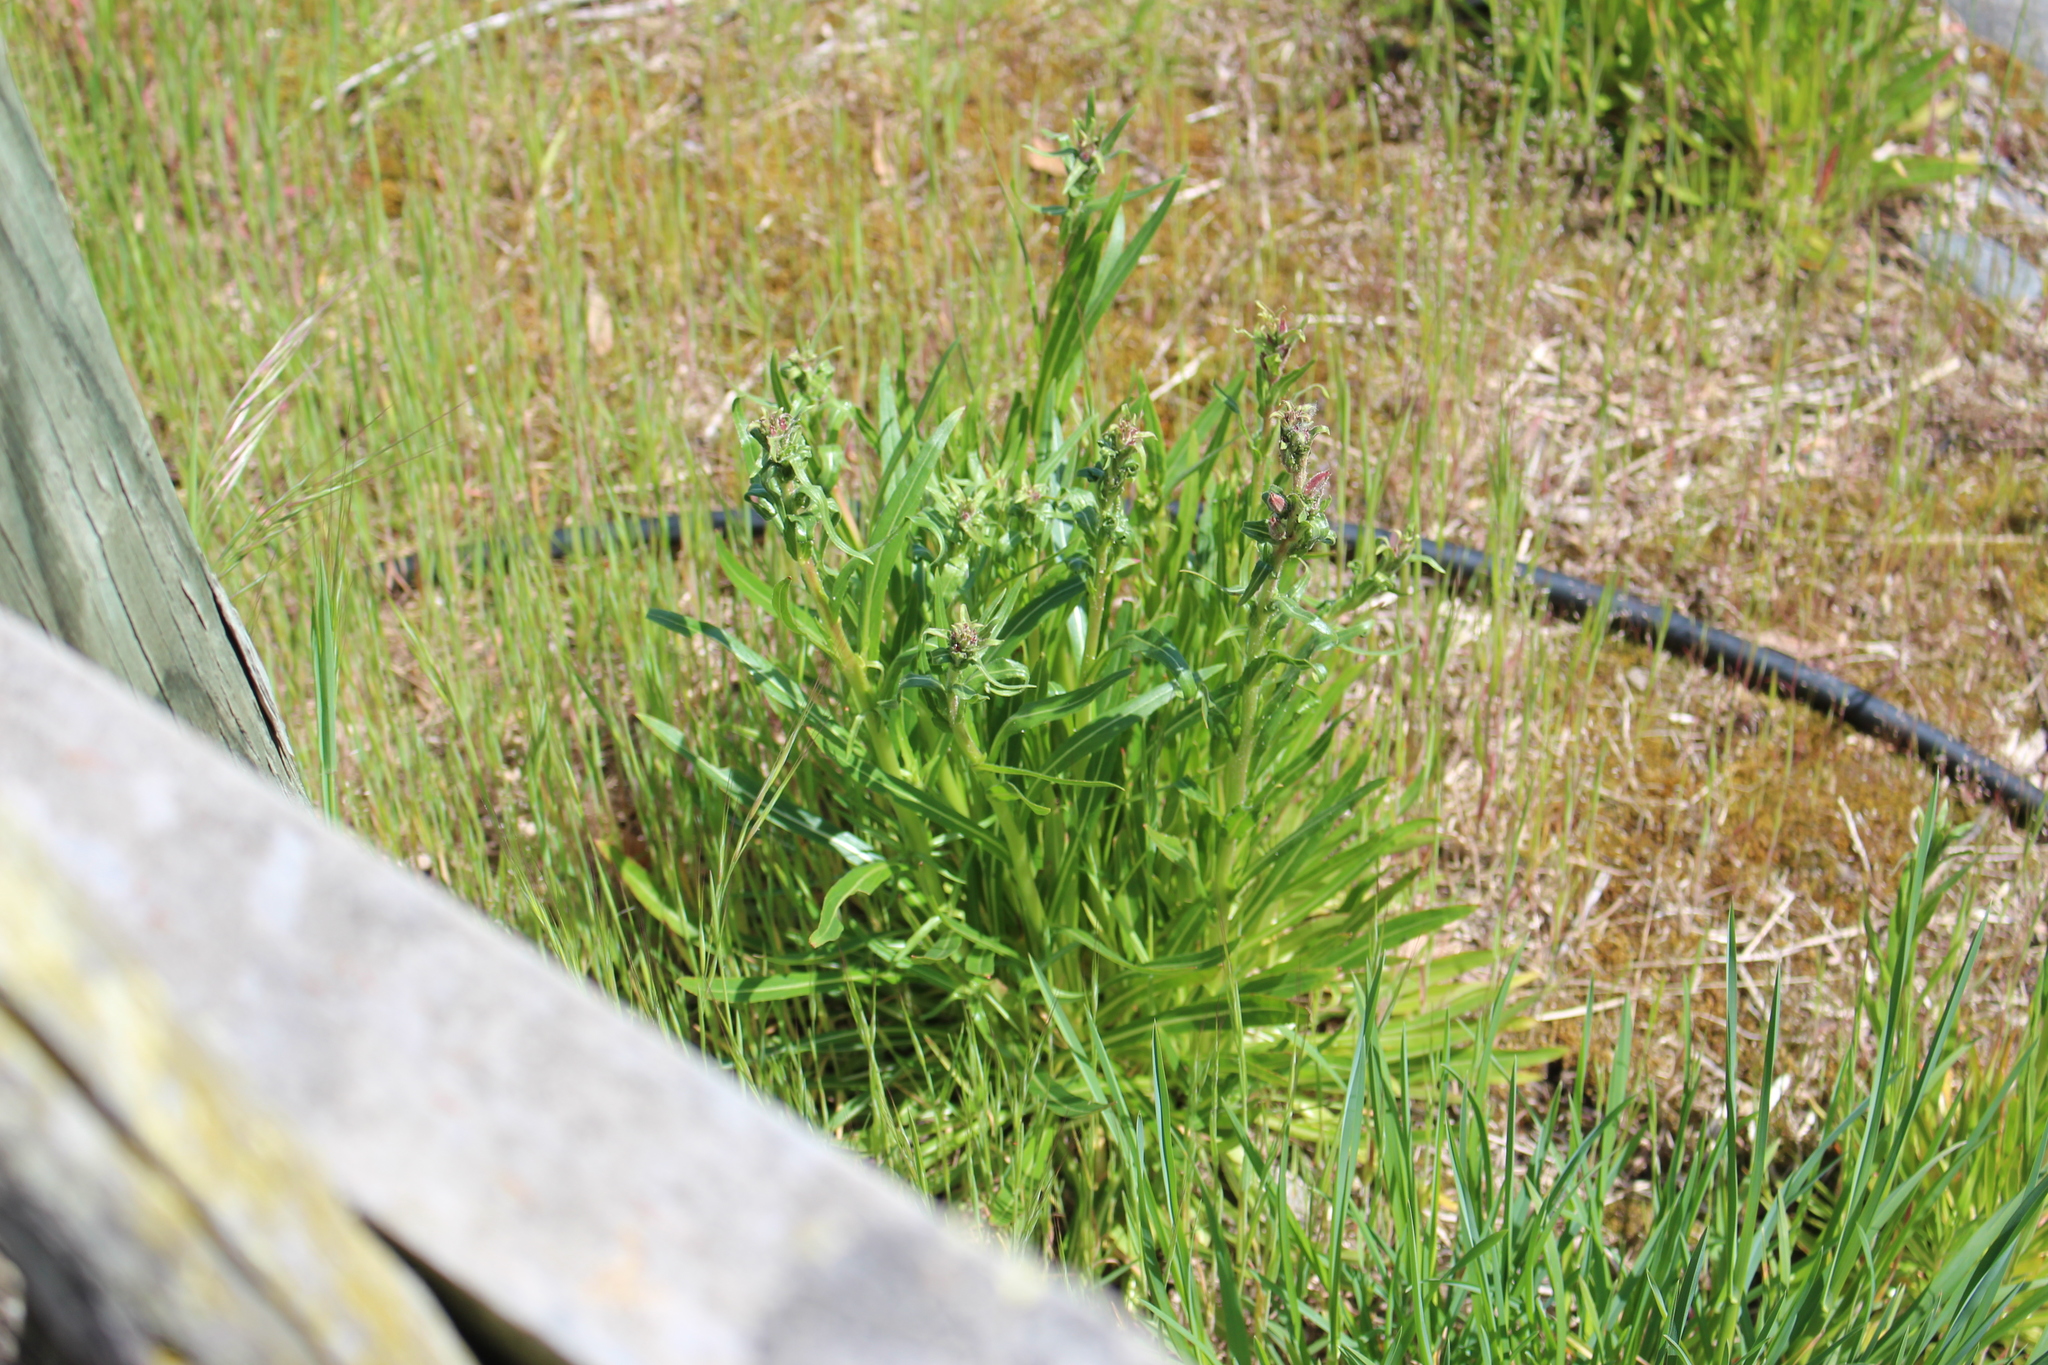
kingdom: Plantae
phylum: Tracheophyta
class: Magnoliopsida
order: Myrtales
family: Onagraceae
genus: Oenothera
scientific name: Oenothera stricta
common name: Fragrant evening-primrose
